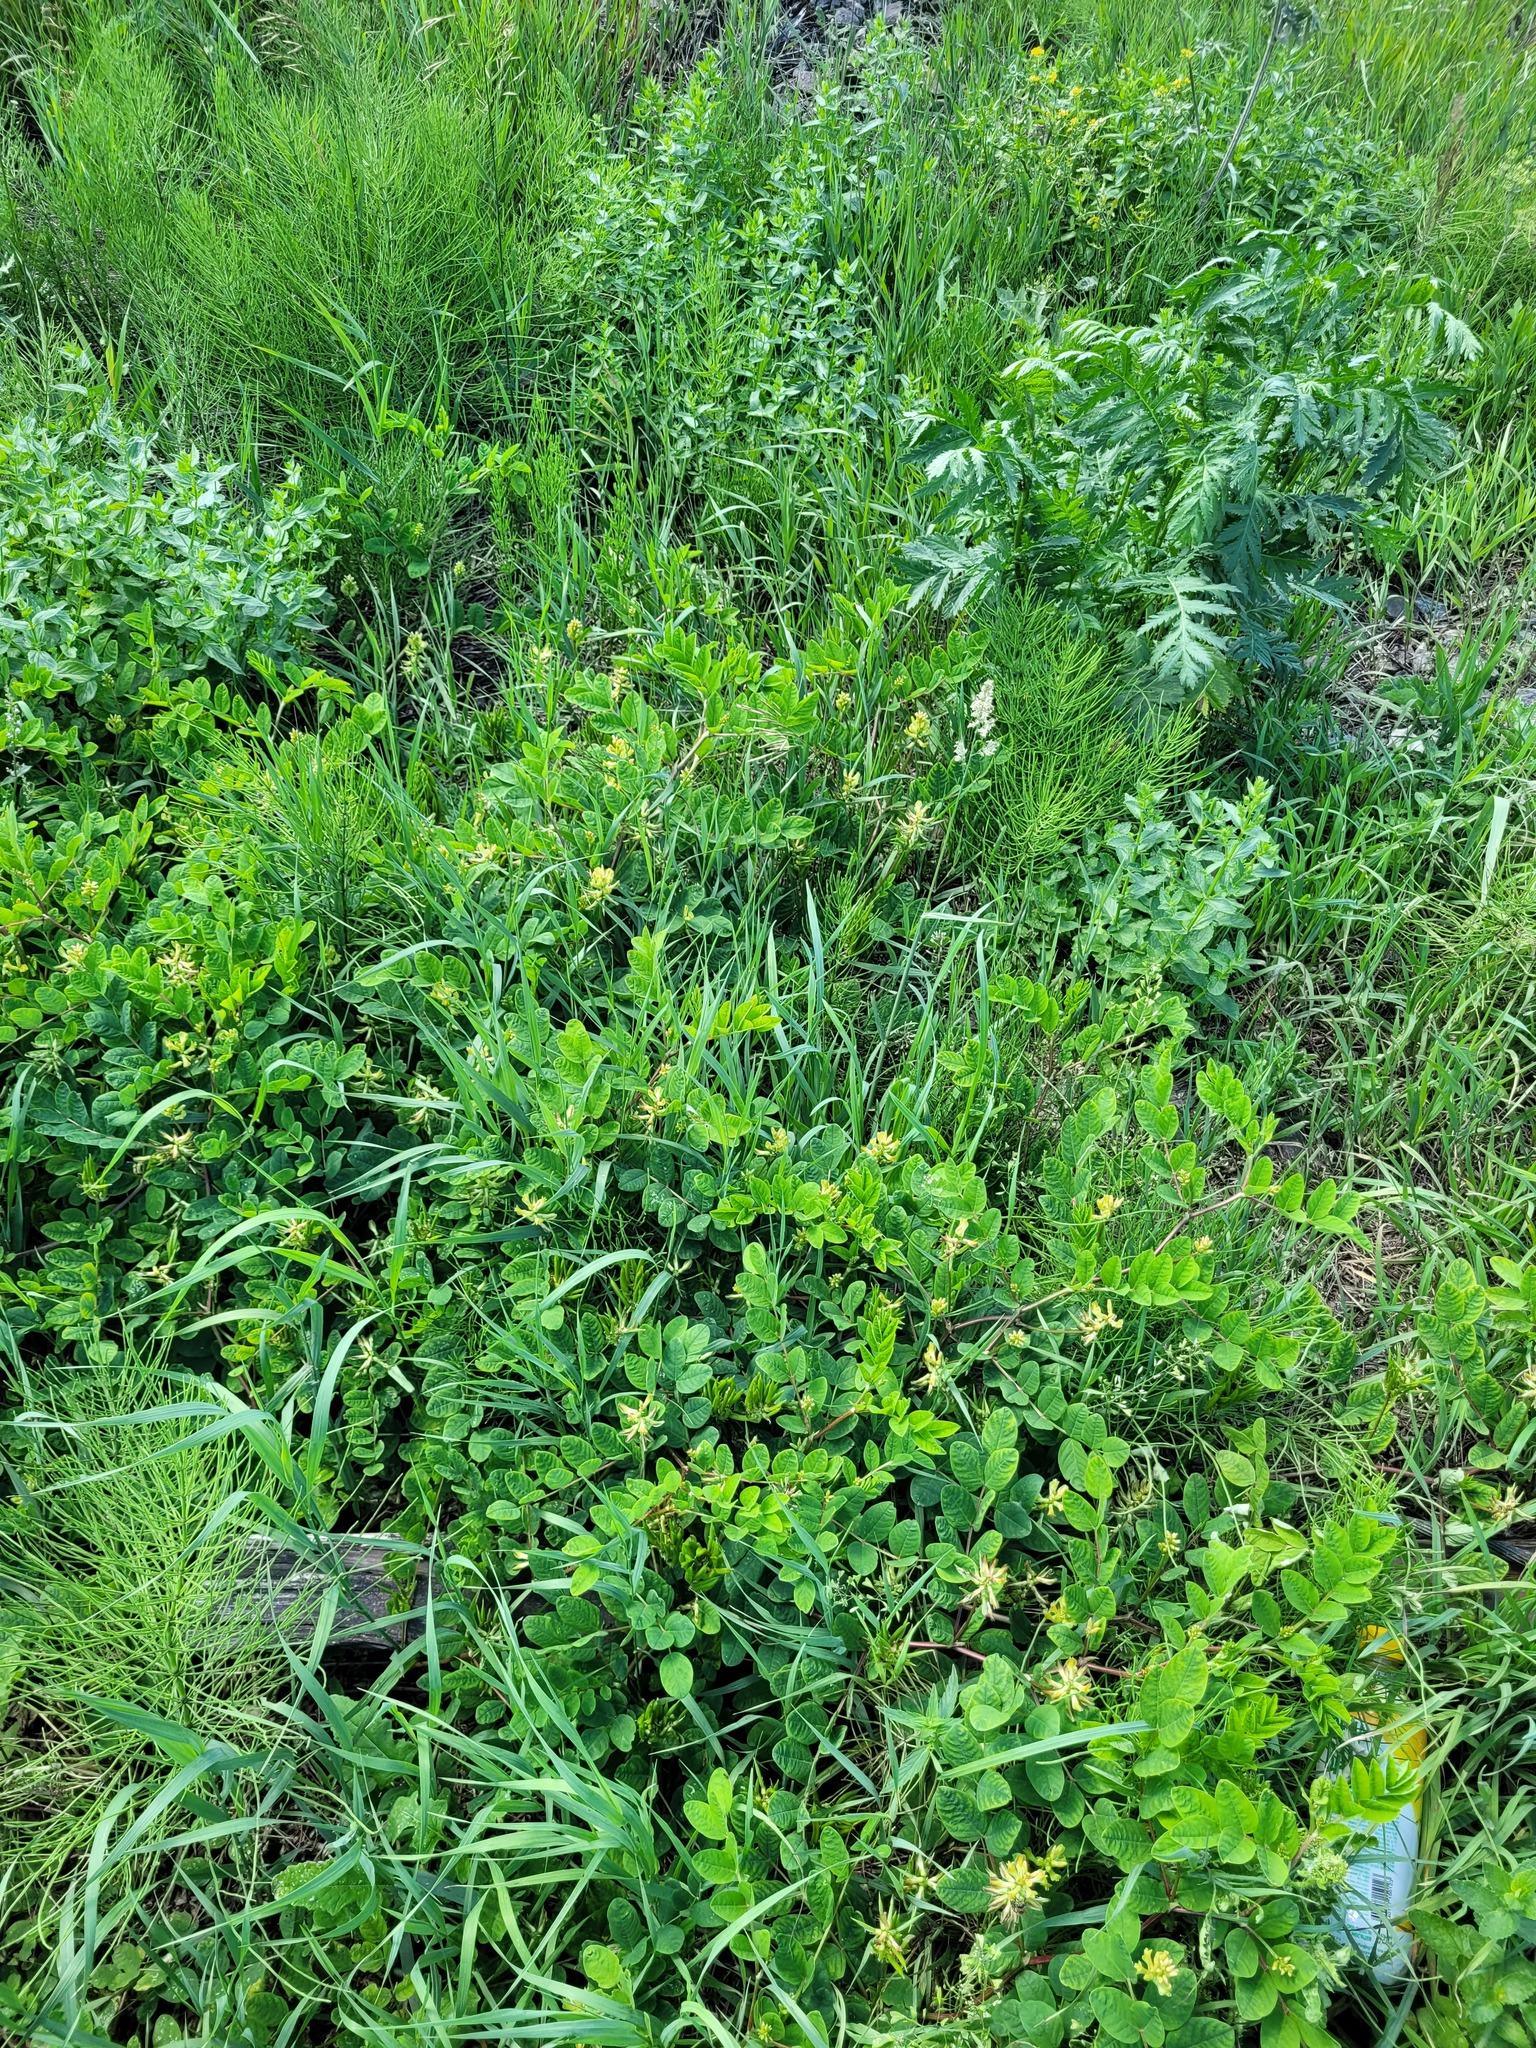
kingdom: Plantae
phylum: Tracheophyta
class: Magnoliopsida
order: Fabales
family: Fabaceae
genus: Astragalus
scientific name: Astragalus glycyphyllos
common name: Wild liquorice
